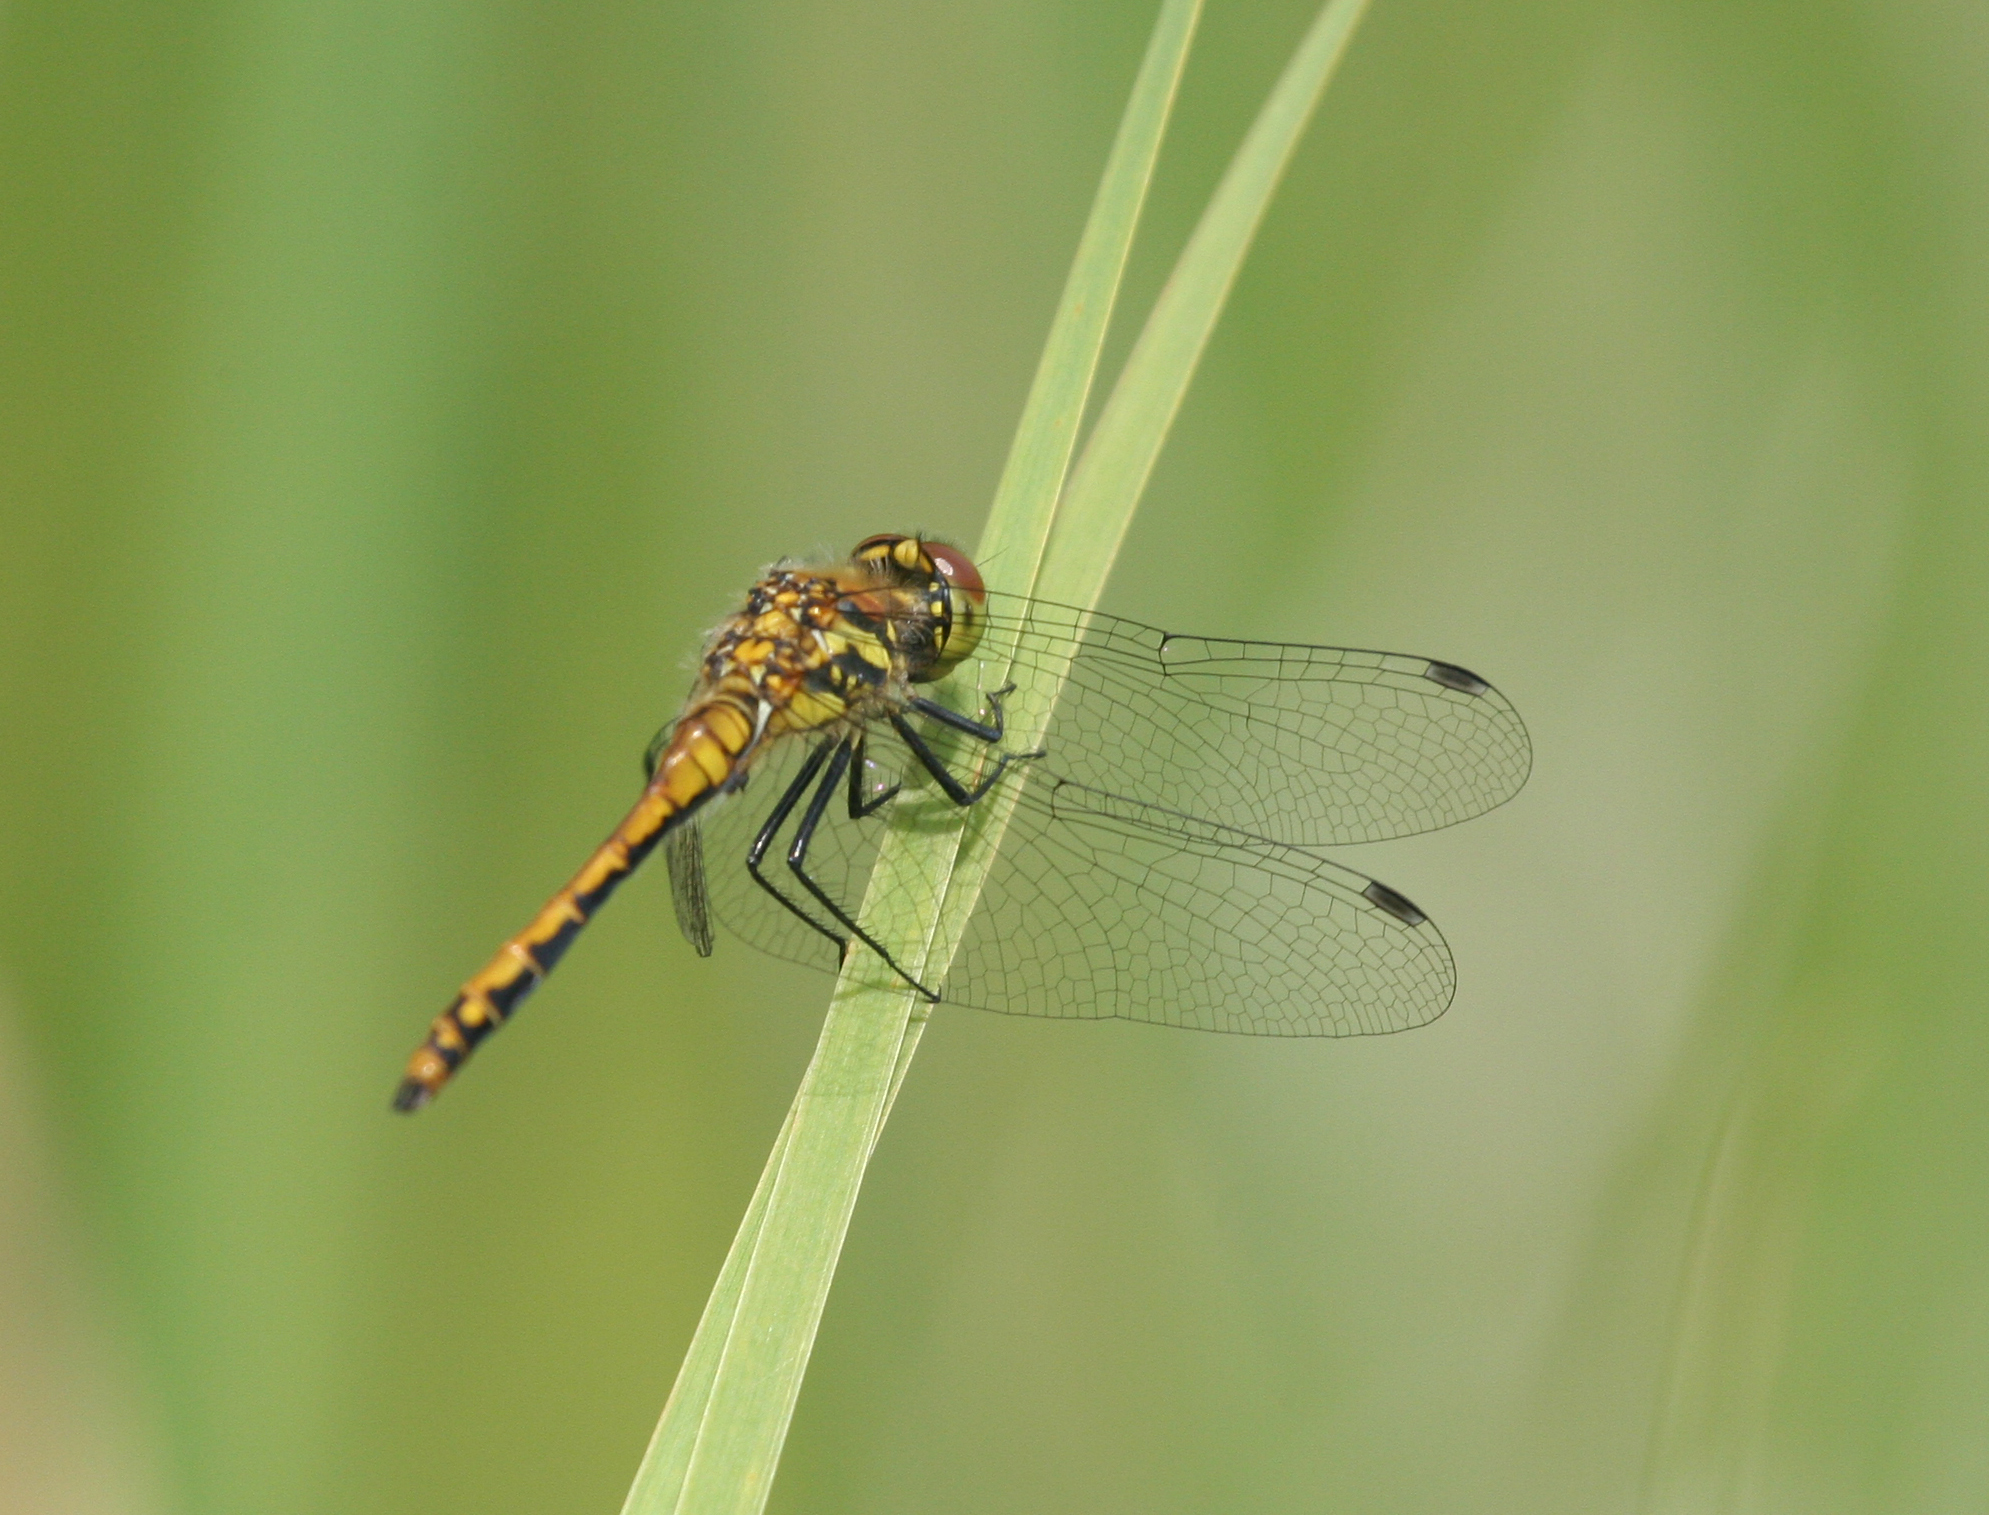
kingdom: Animalia
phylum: Arthropoda
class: Insecta
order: Odonata
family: Libellulidae
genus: Sympetrum
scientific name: Sympetrum danae
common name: Black darter
